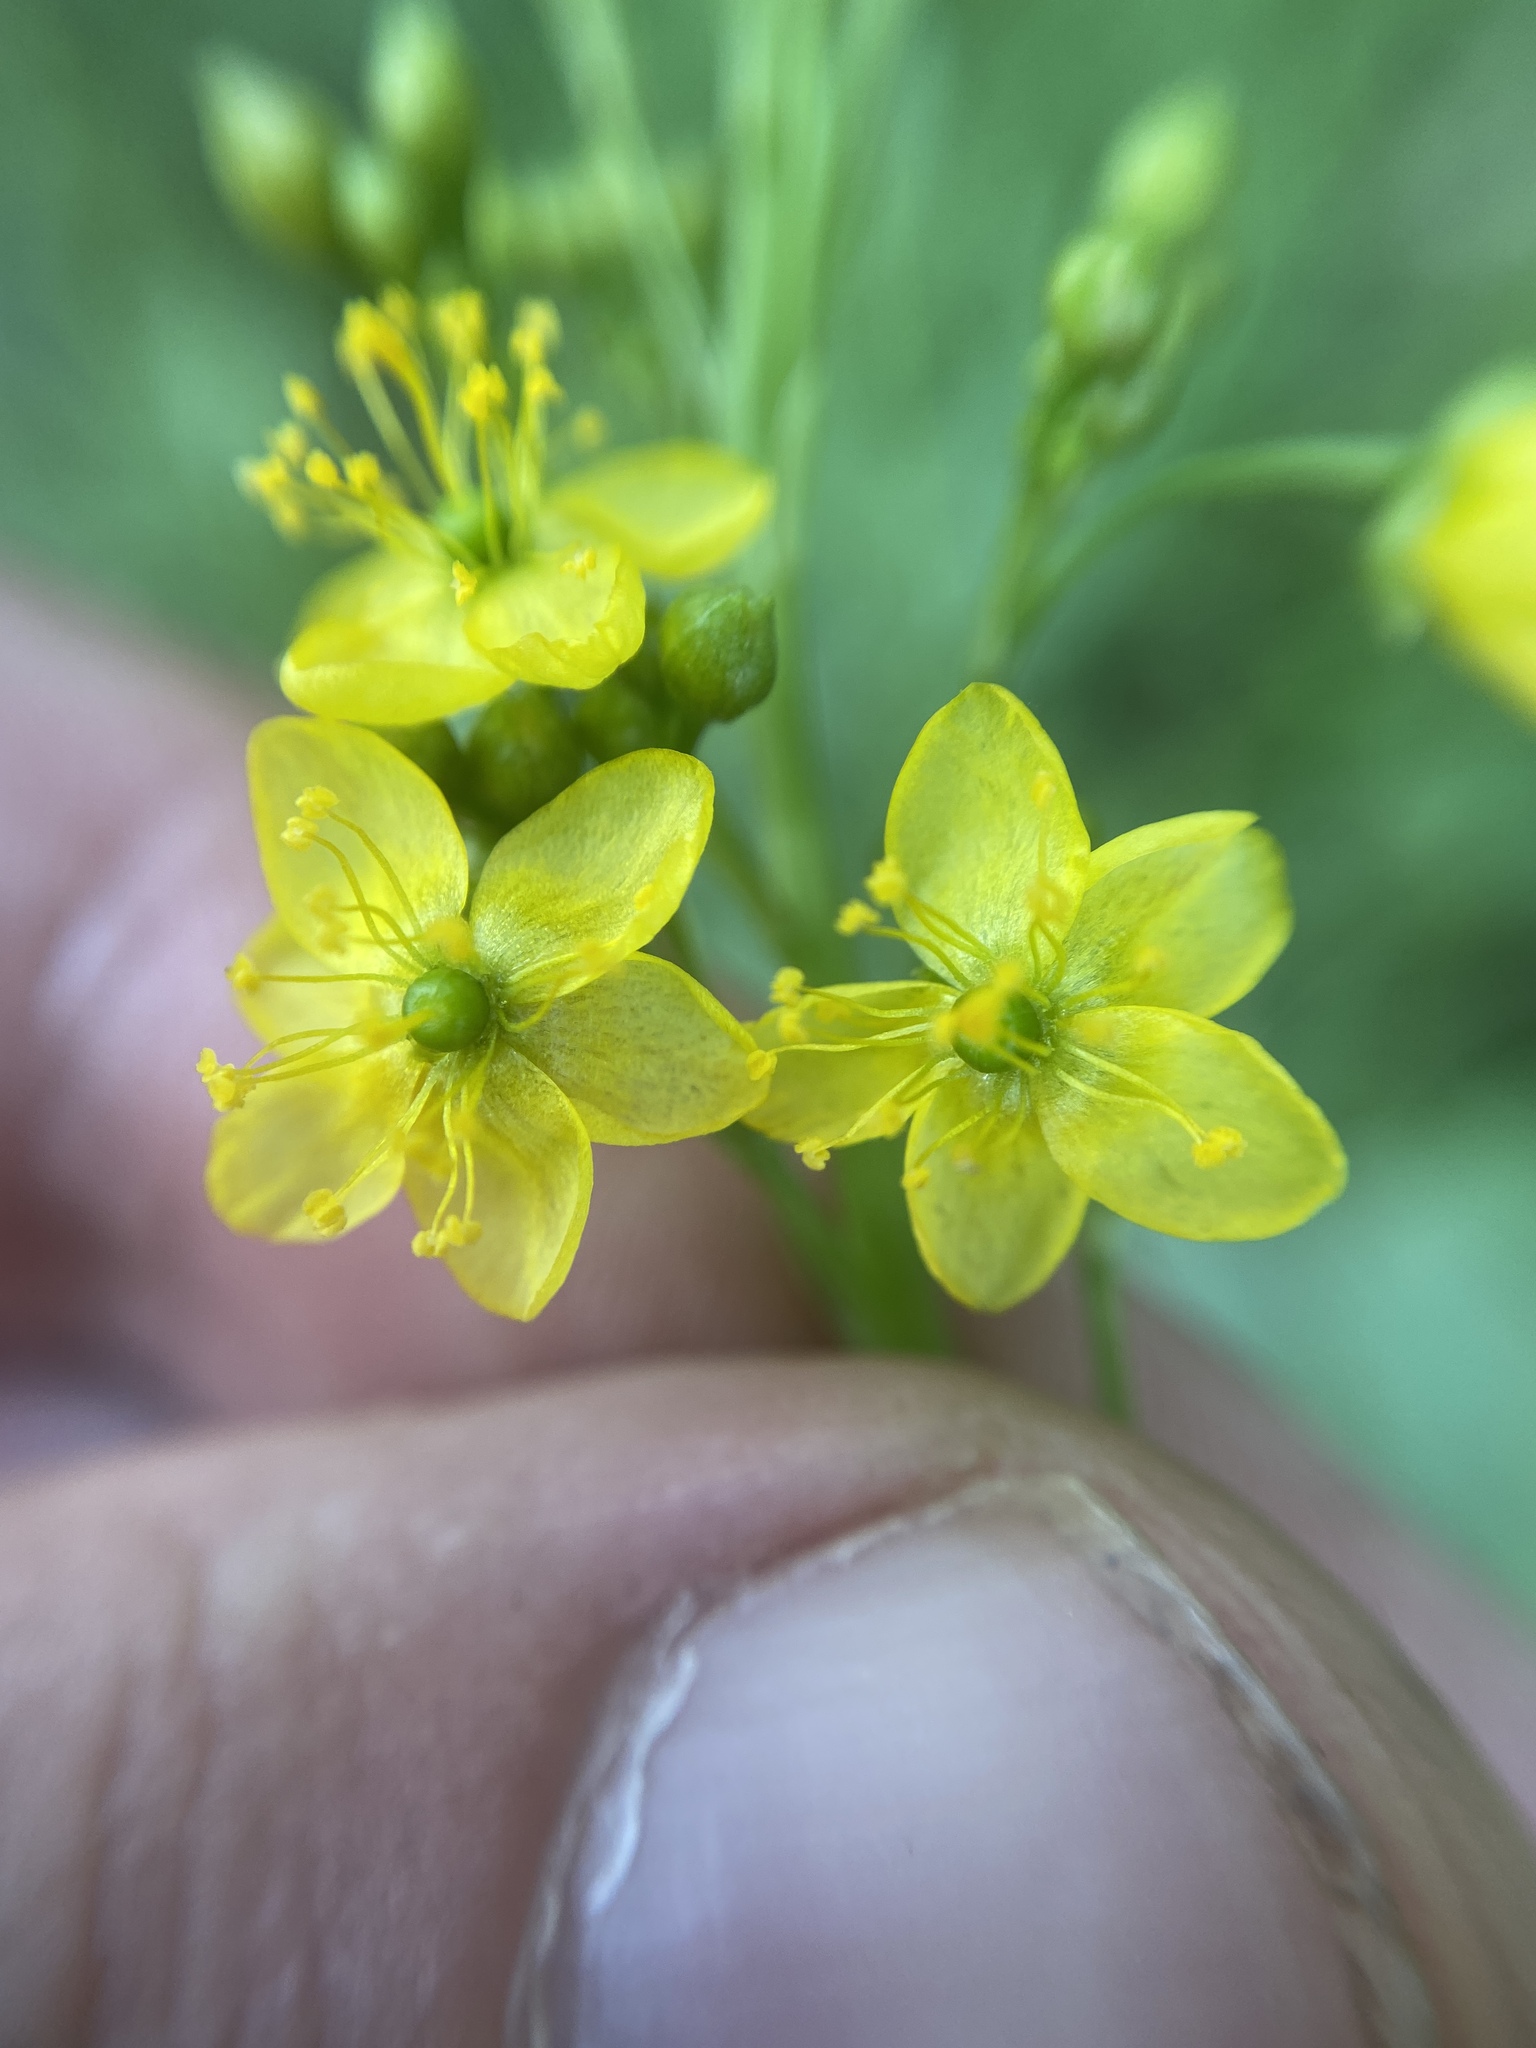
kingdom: Plantae
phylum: Tracheophyta
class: Magnoliopsida
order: Caryophyllales
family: Talinaceae
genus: Talinum
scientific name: Talinum paniculatum
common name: Jewels of opar
